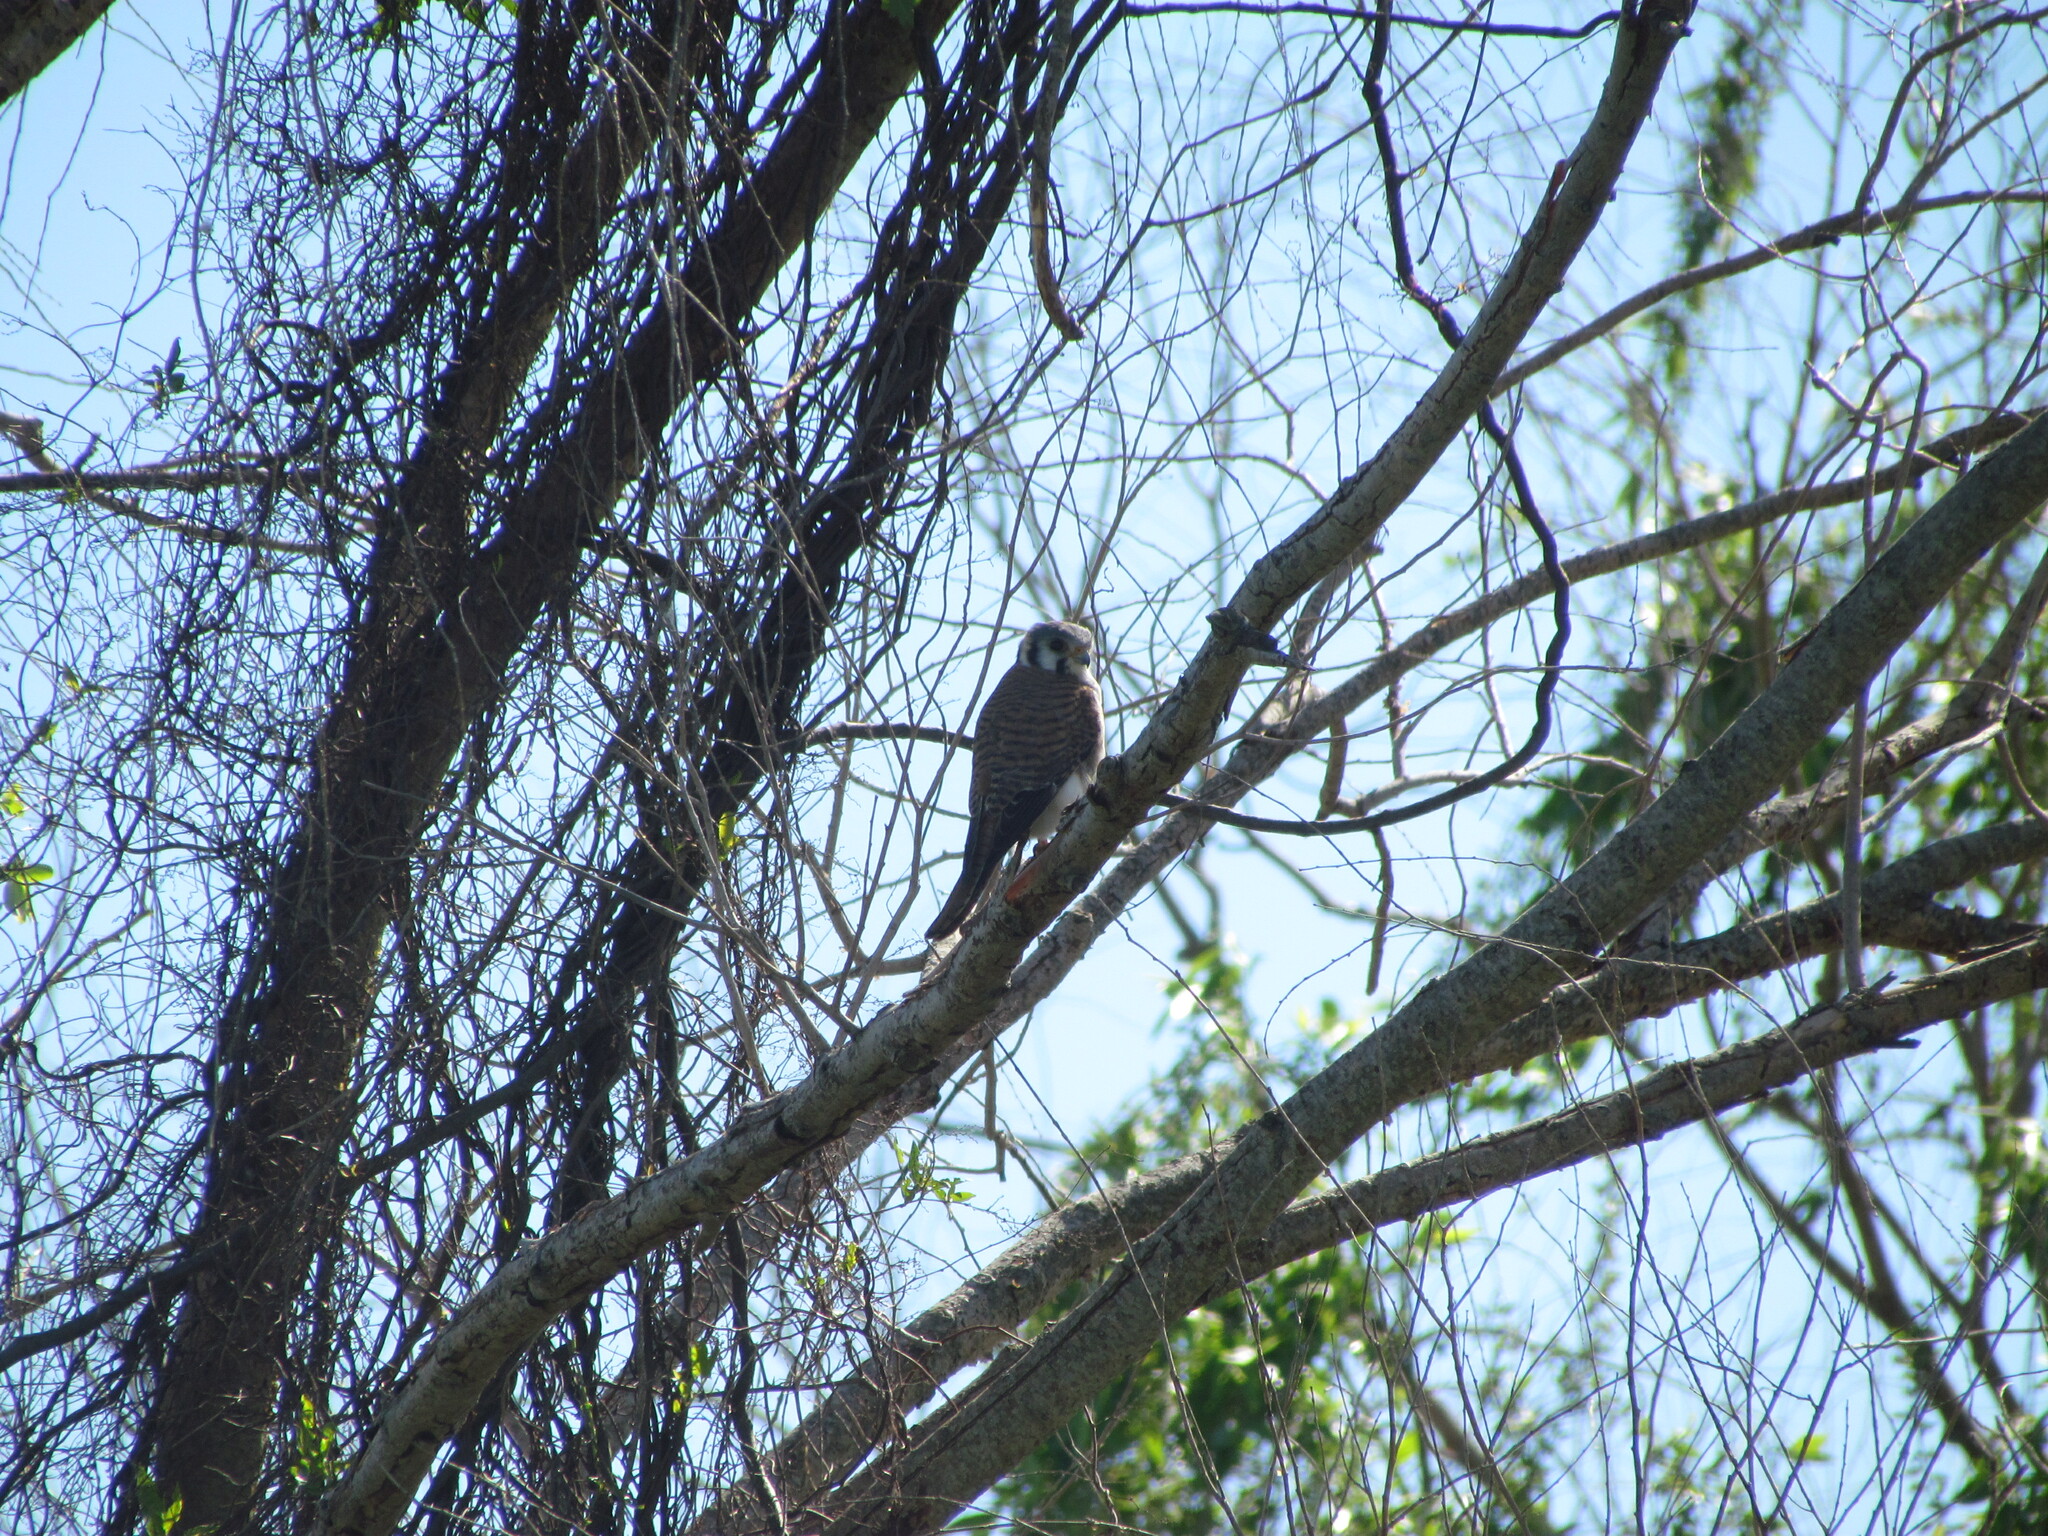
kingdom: Animalia
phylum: Chordata
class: Aves
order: Falconiformes
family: Falconidae
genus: Falco
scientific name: Falco sparverius
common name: American kestrel
